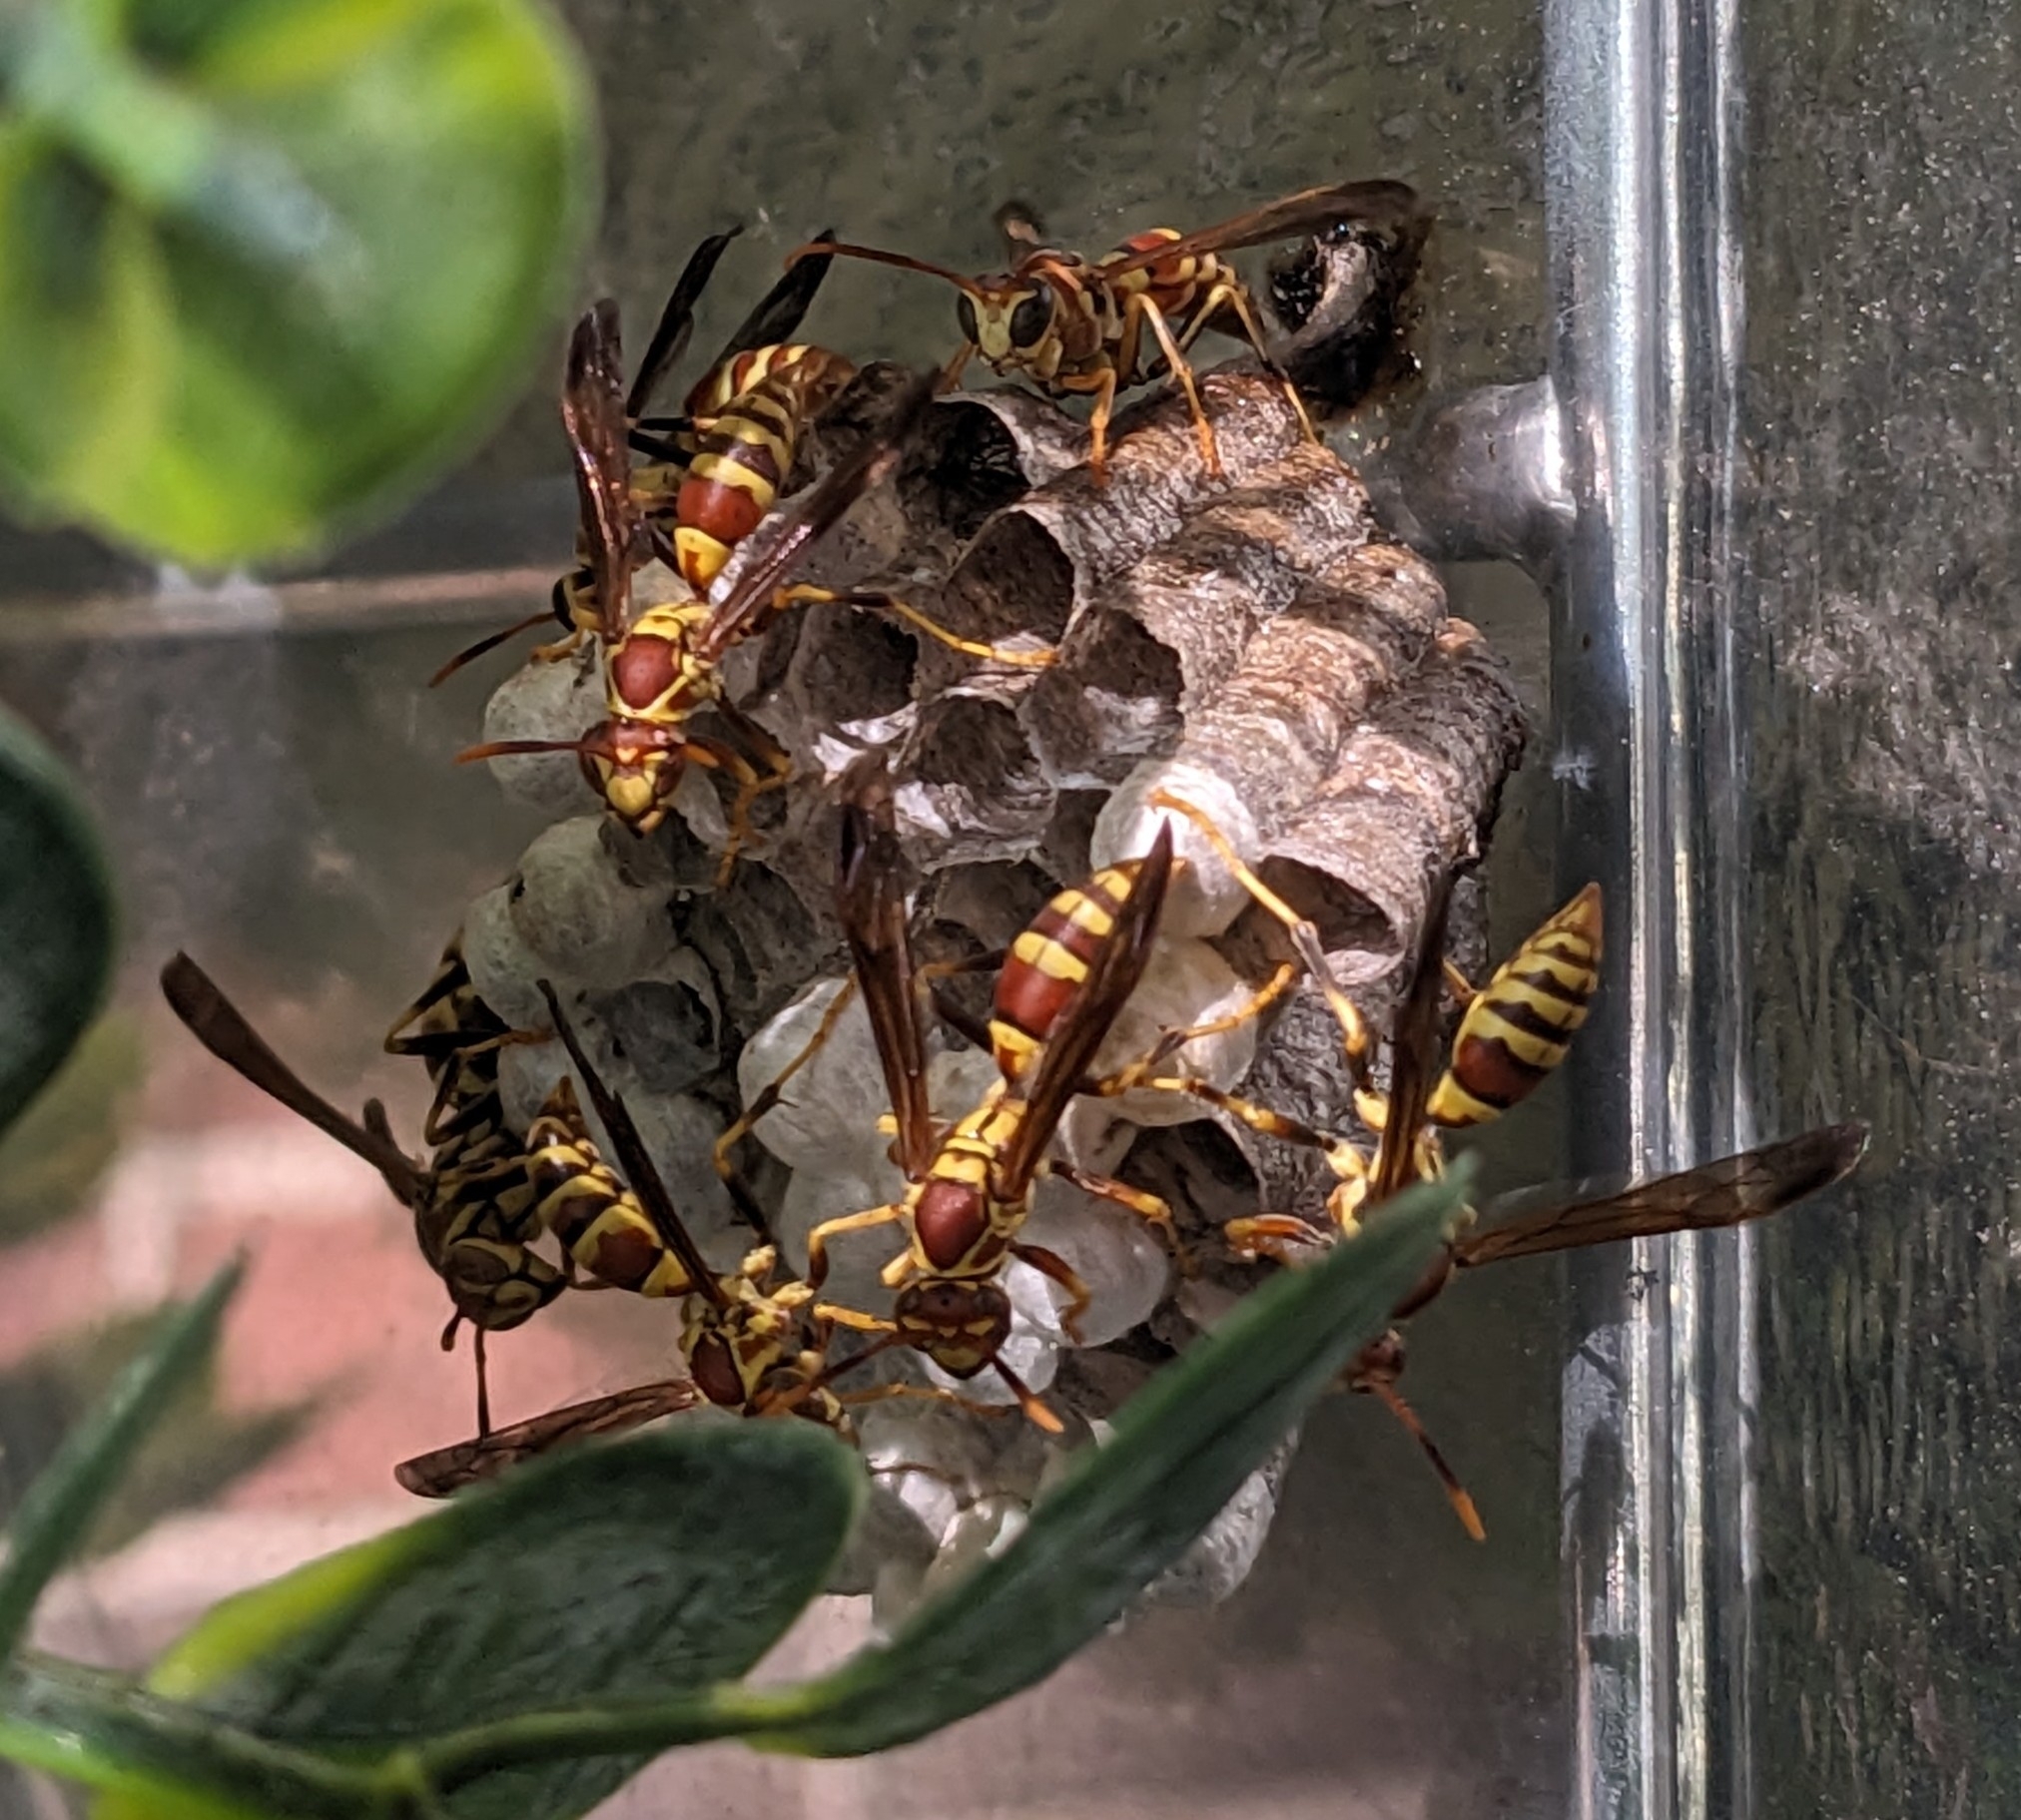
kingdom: Animalia
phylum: Arthropoda
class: Insecta
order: Hymenoptera
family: Eumenidae
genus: Polistes
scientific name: Polistes exclamans
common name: Paper wasp
